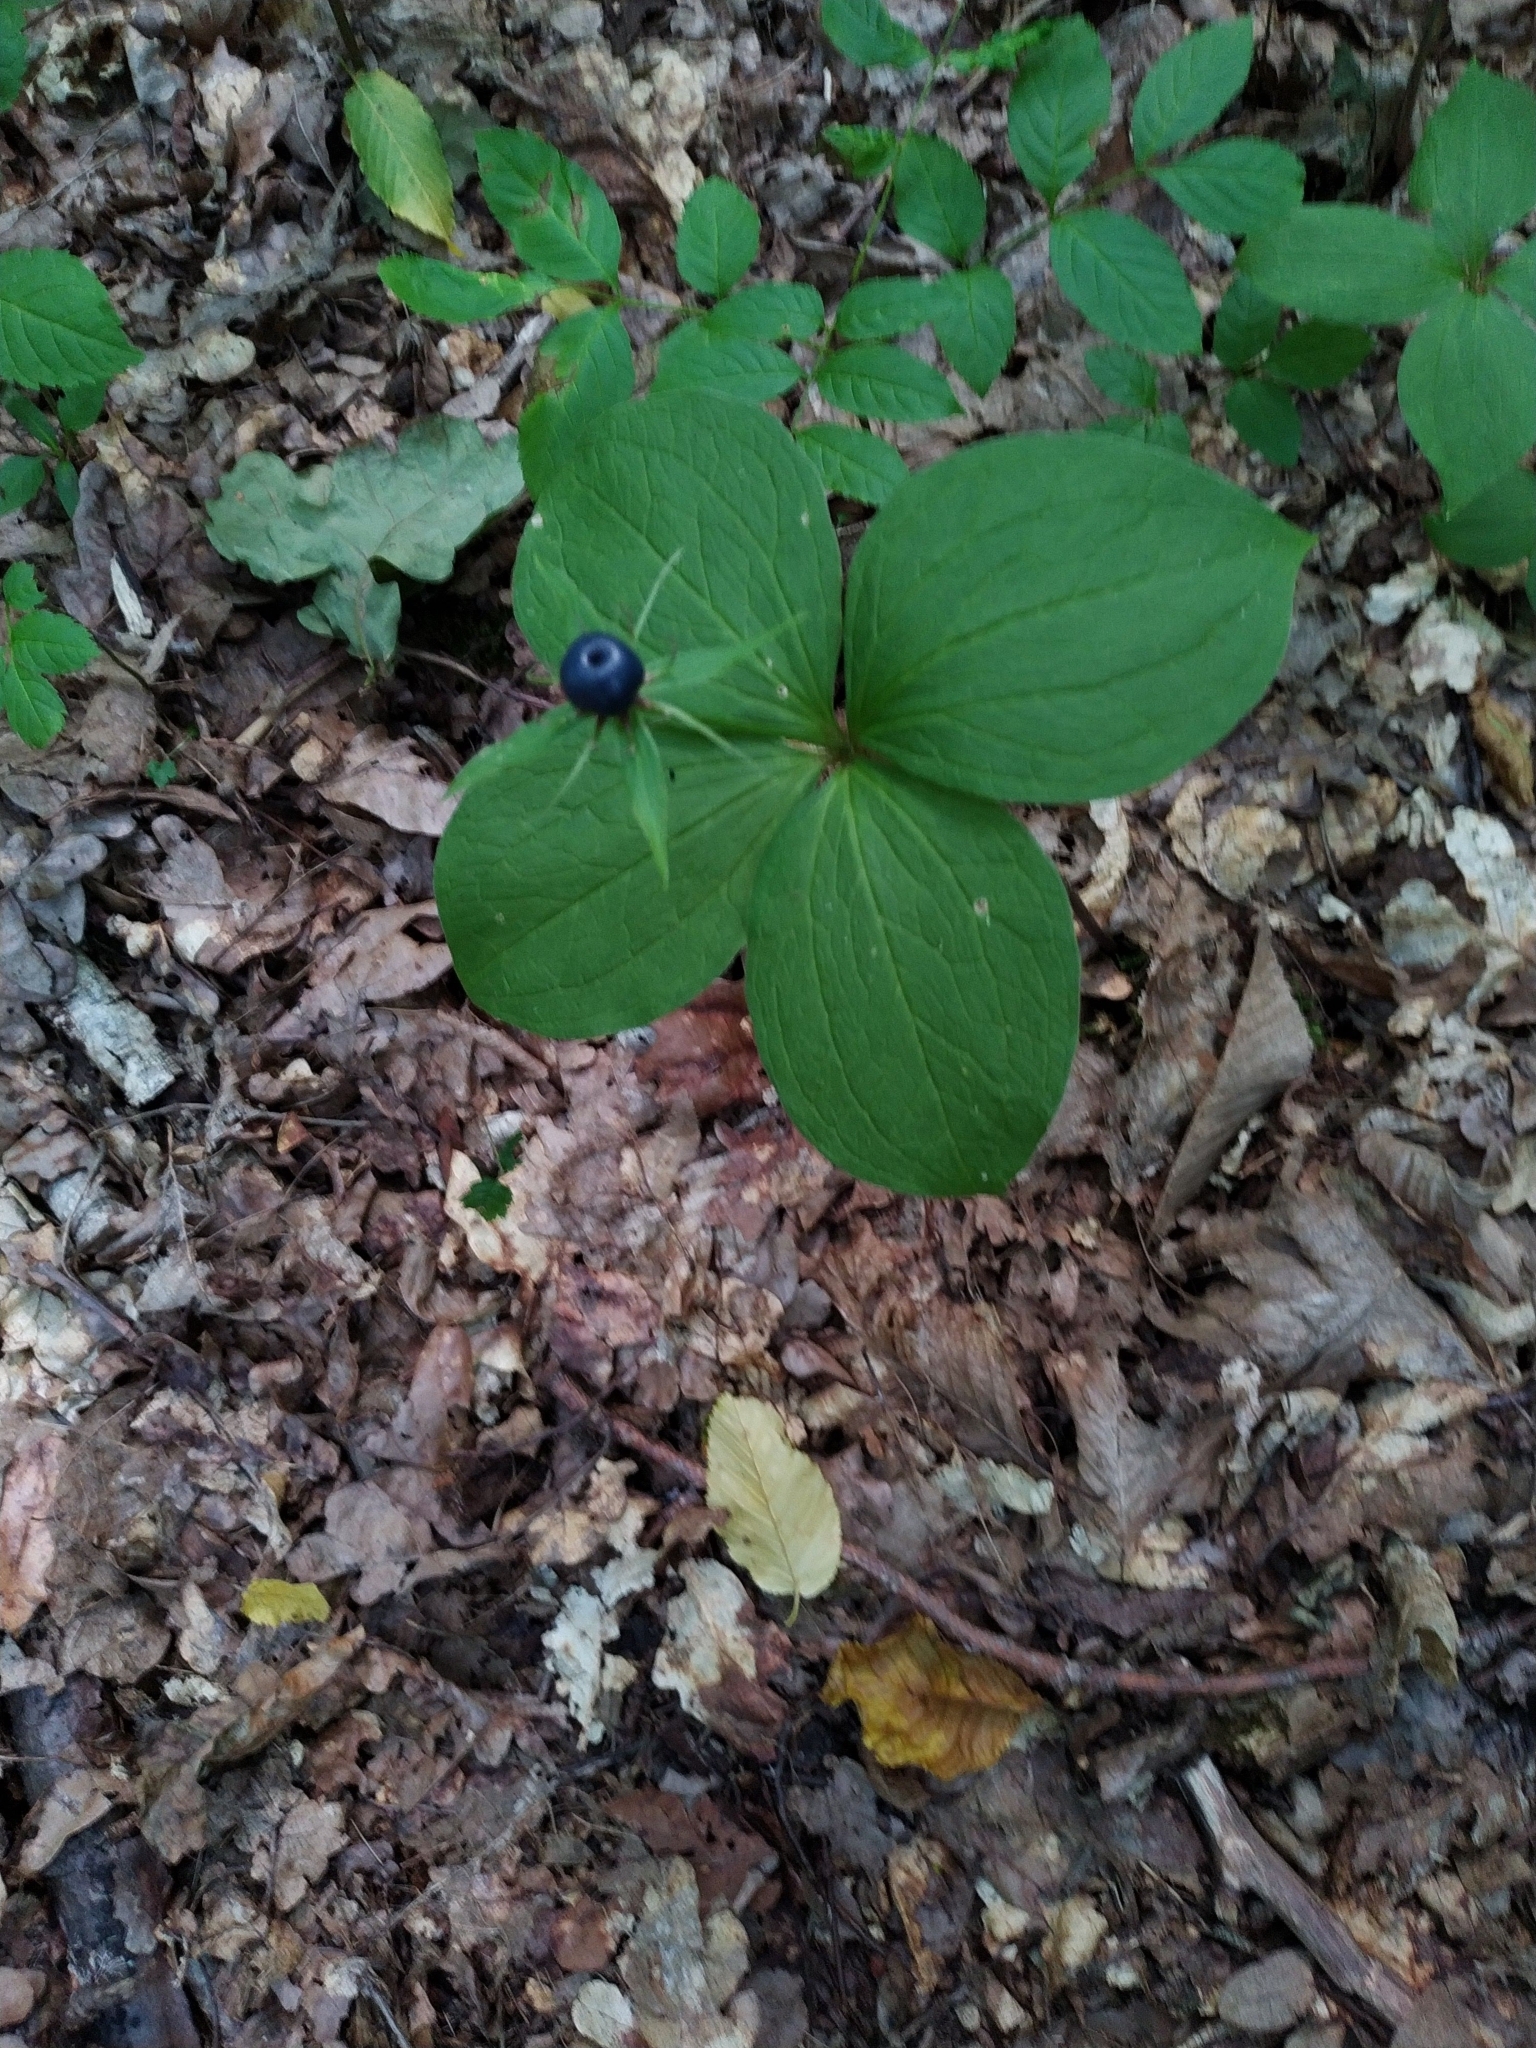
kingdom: Plantae
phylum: Tracheophyta
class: Liliopsida
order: Liliales
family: Melanthiaceae
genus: Paris
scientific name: Paris quadrifolia
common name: Herb-paris
